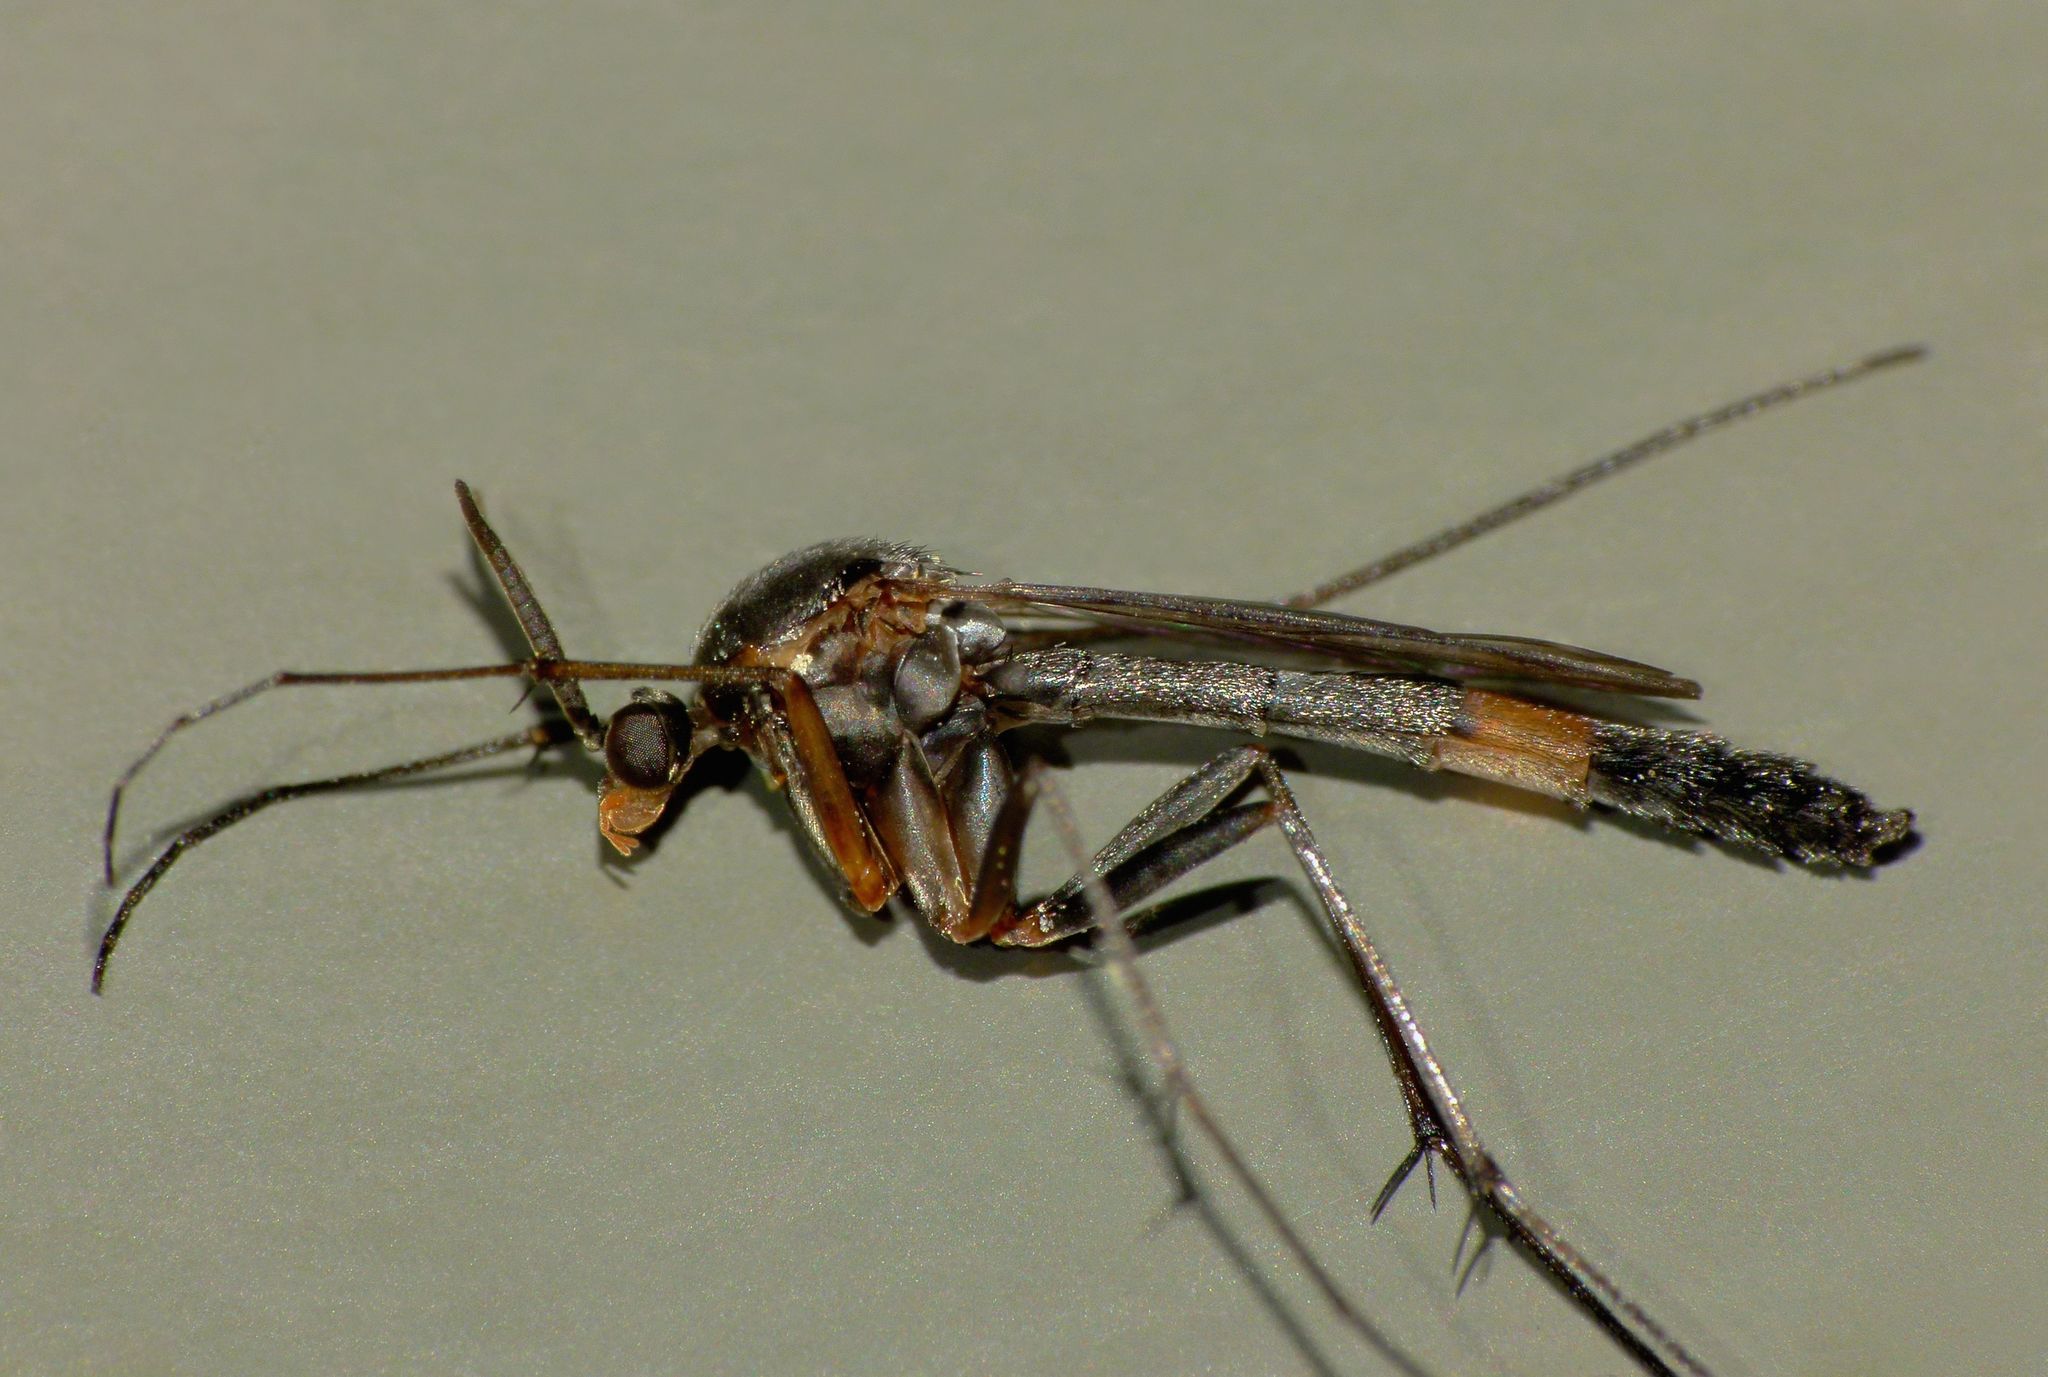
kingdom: Animalia
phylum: Arthropoda
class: Insecta
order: Diptera
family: Keroplatidae
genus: Isoneuromyia
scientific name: Isoneuromyia harrisi
